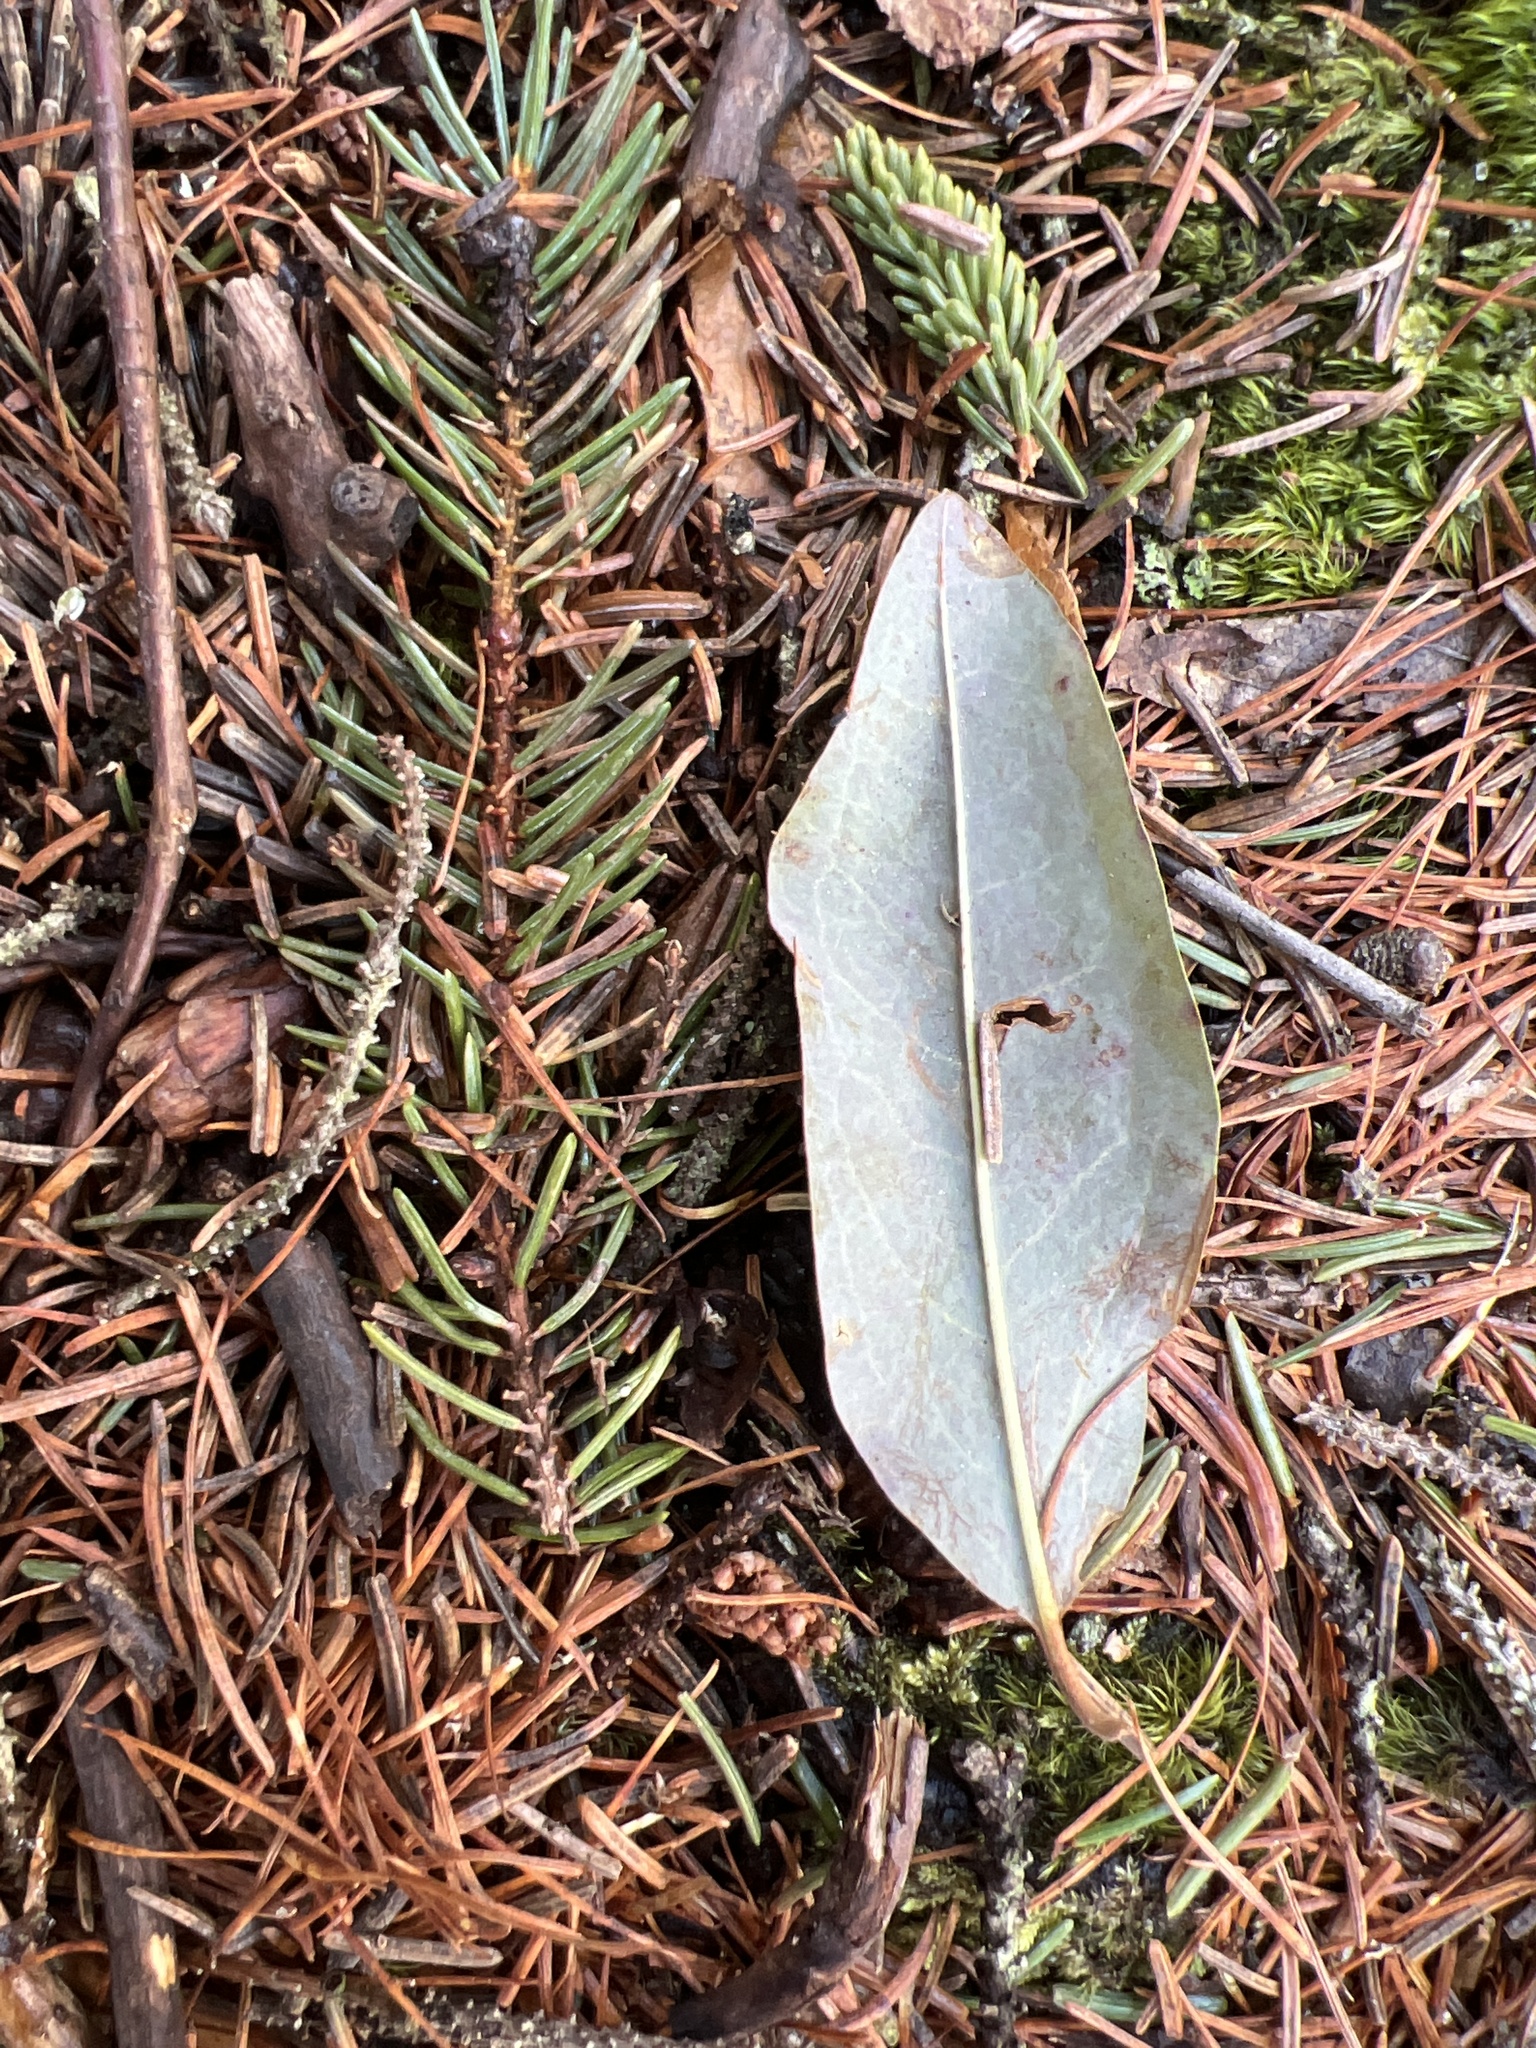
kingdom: Plantae
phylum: Tracheophyta
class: Magnoliopsida
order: Dipsacales
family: Viburnaceae
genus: Viburnum
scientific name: Viburnum cassinoides
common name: Swamp haw
